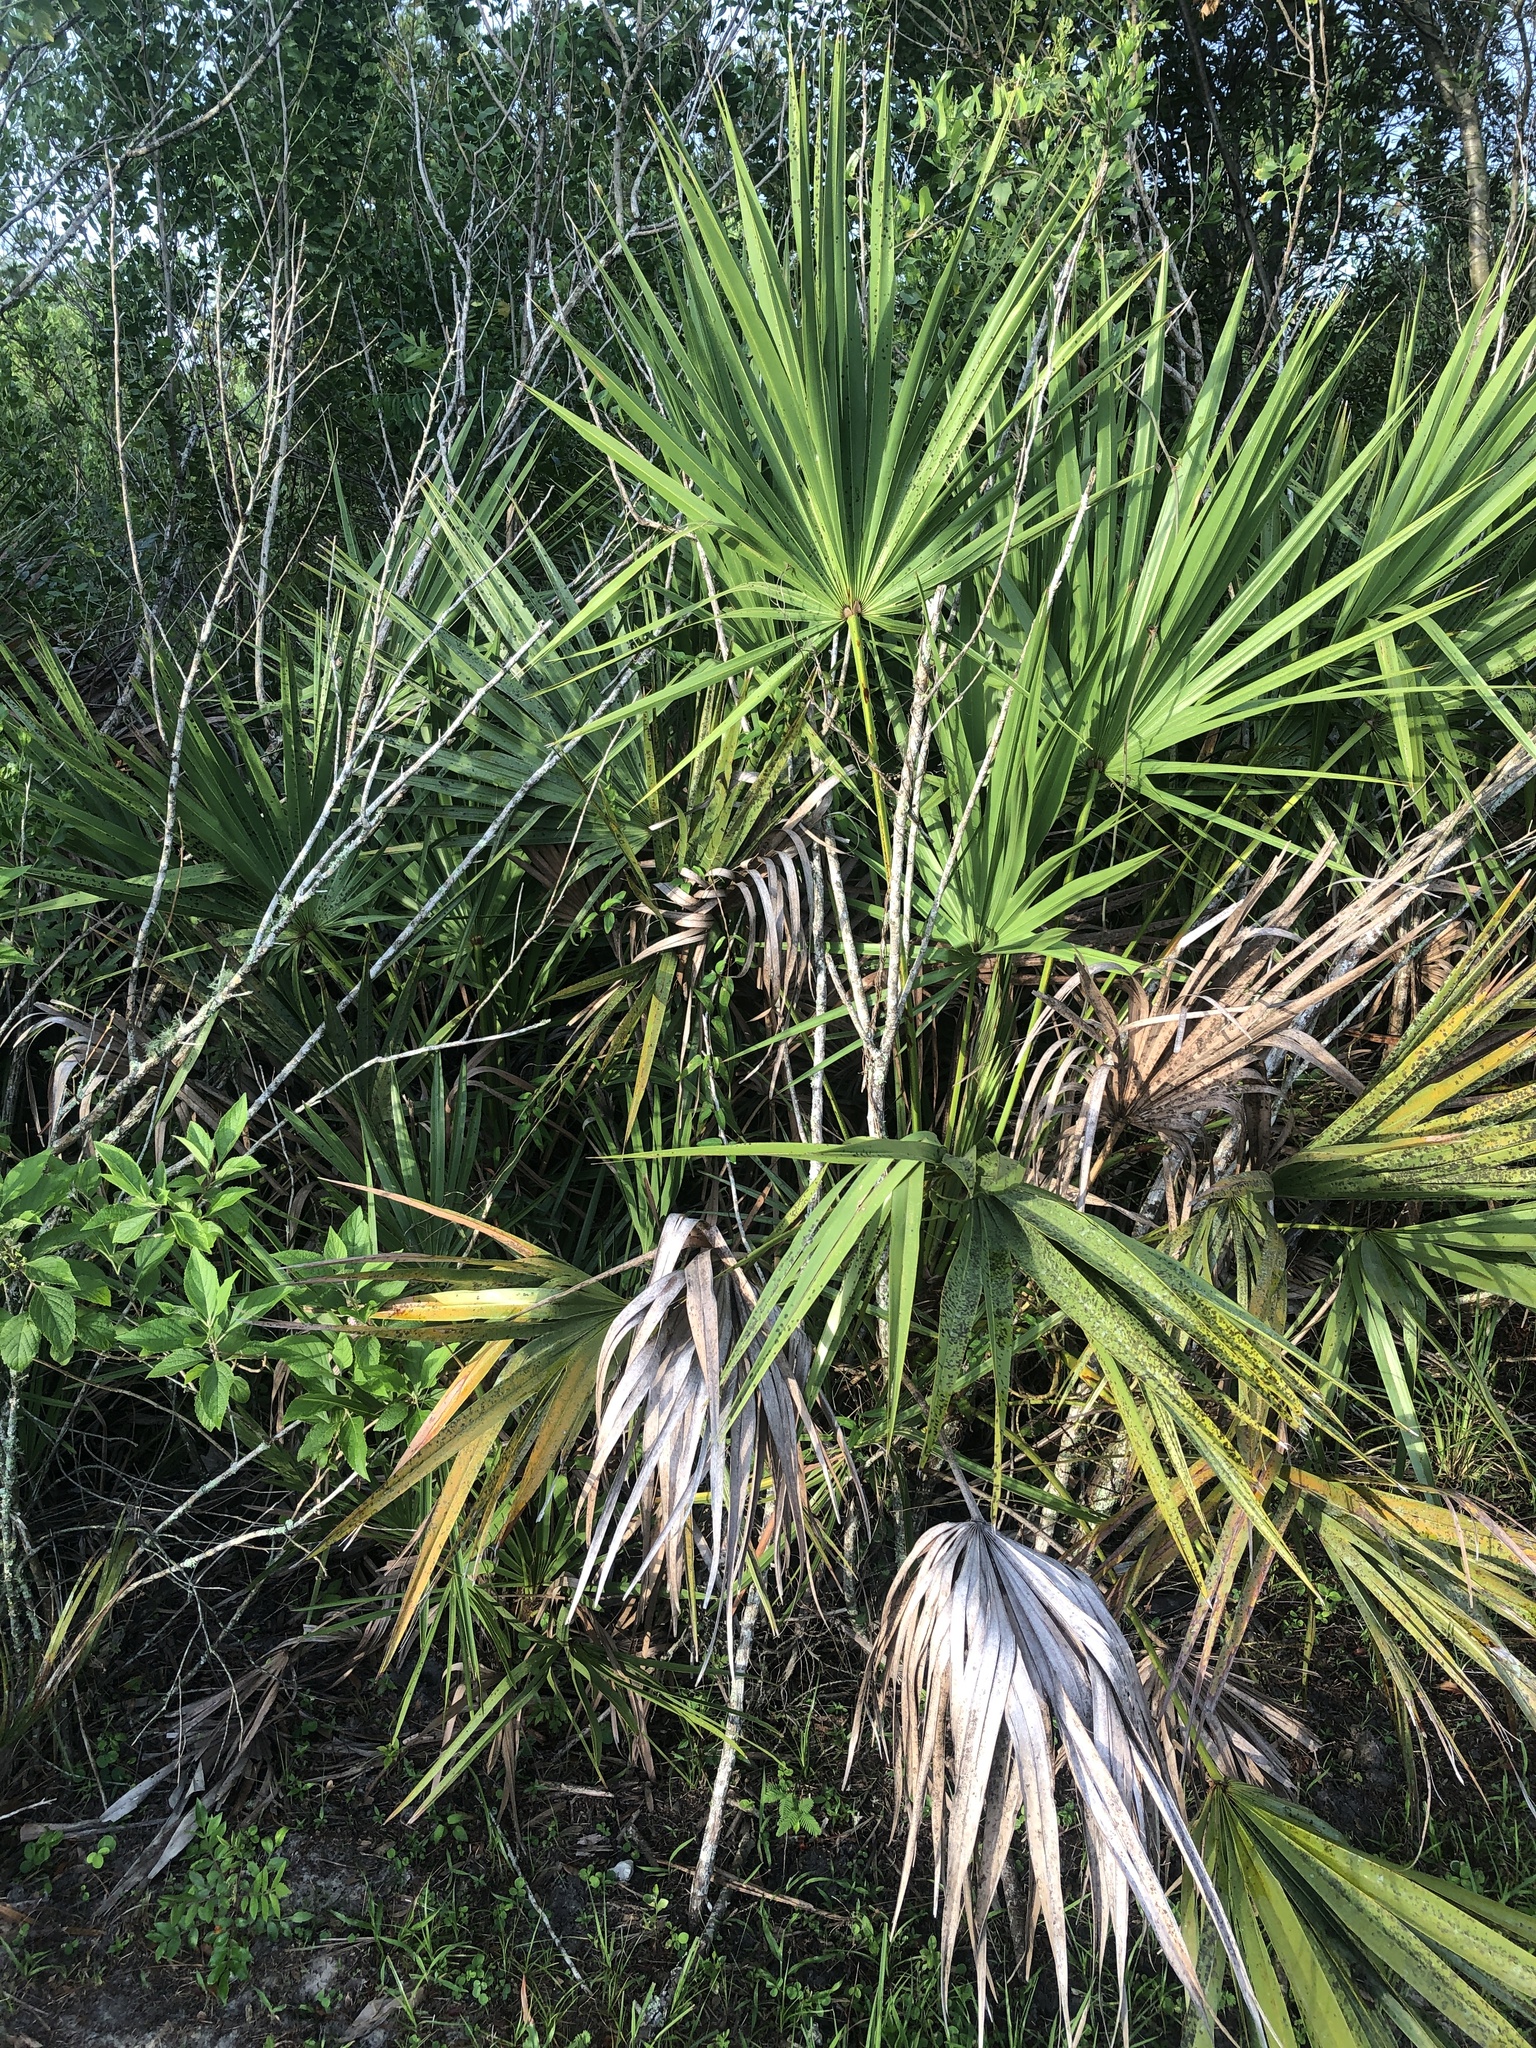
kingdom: Plantae
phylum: Tracheophyta
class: Liliopsida
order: Arecales
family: Arecaceae
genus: Serenoa
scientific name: Serenoa repens
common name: Saw-palmetto
